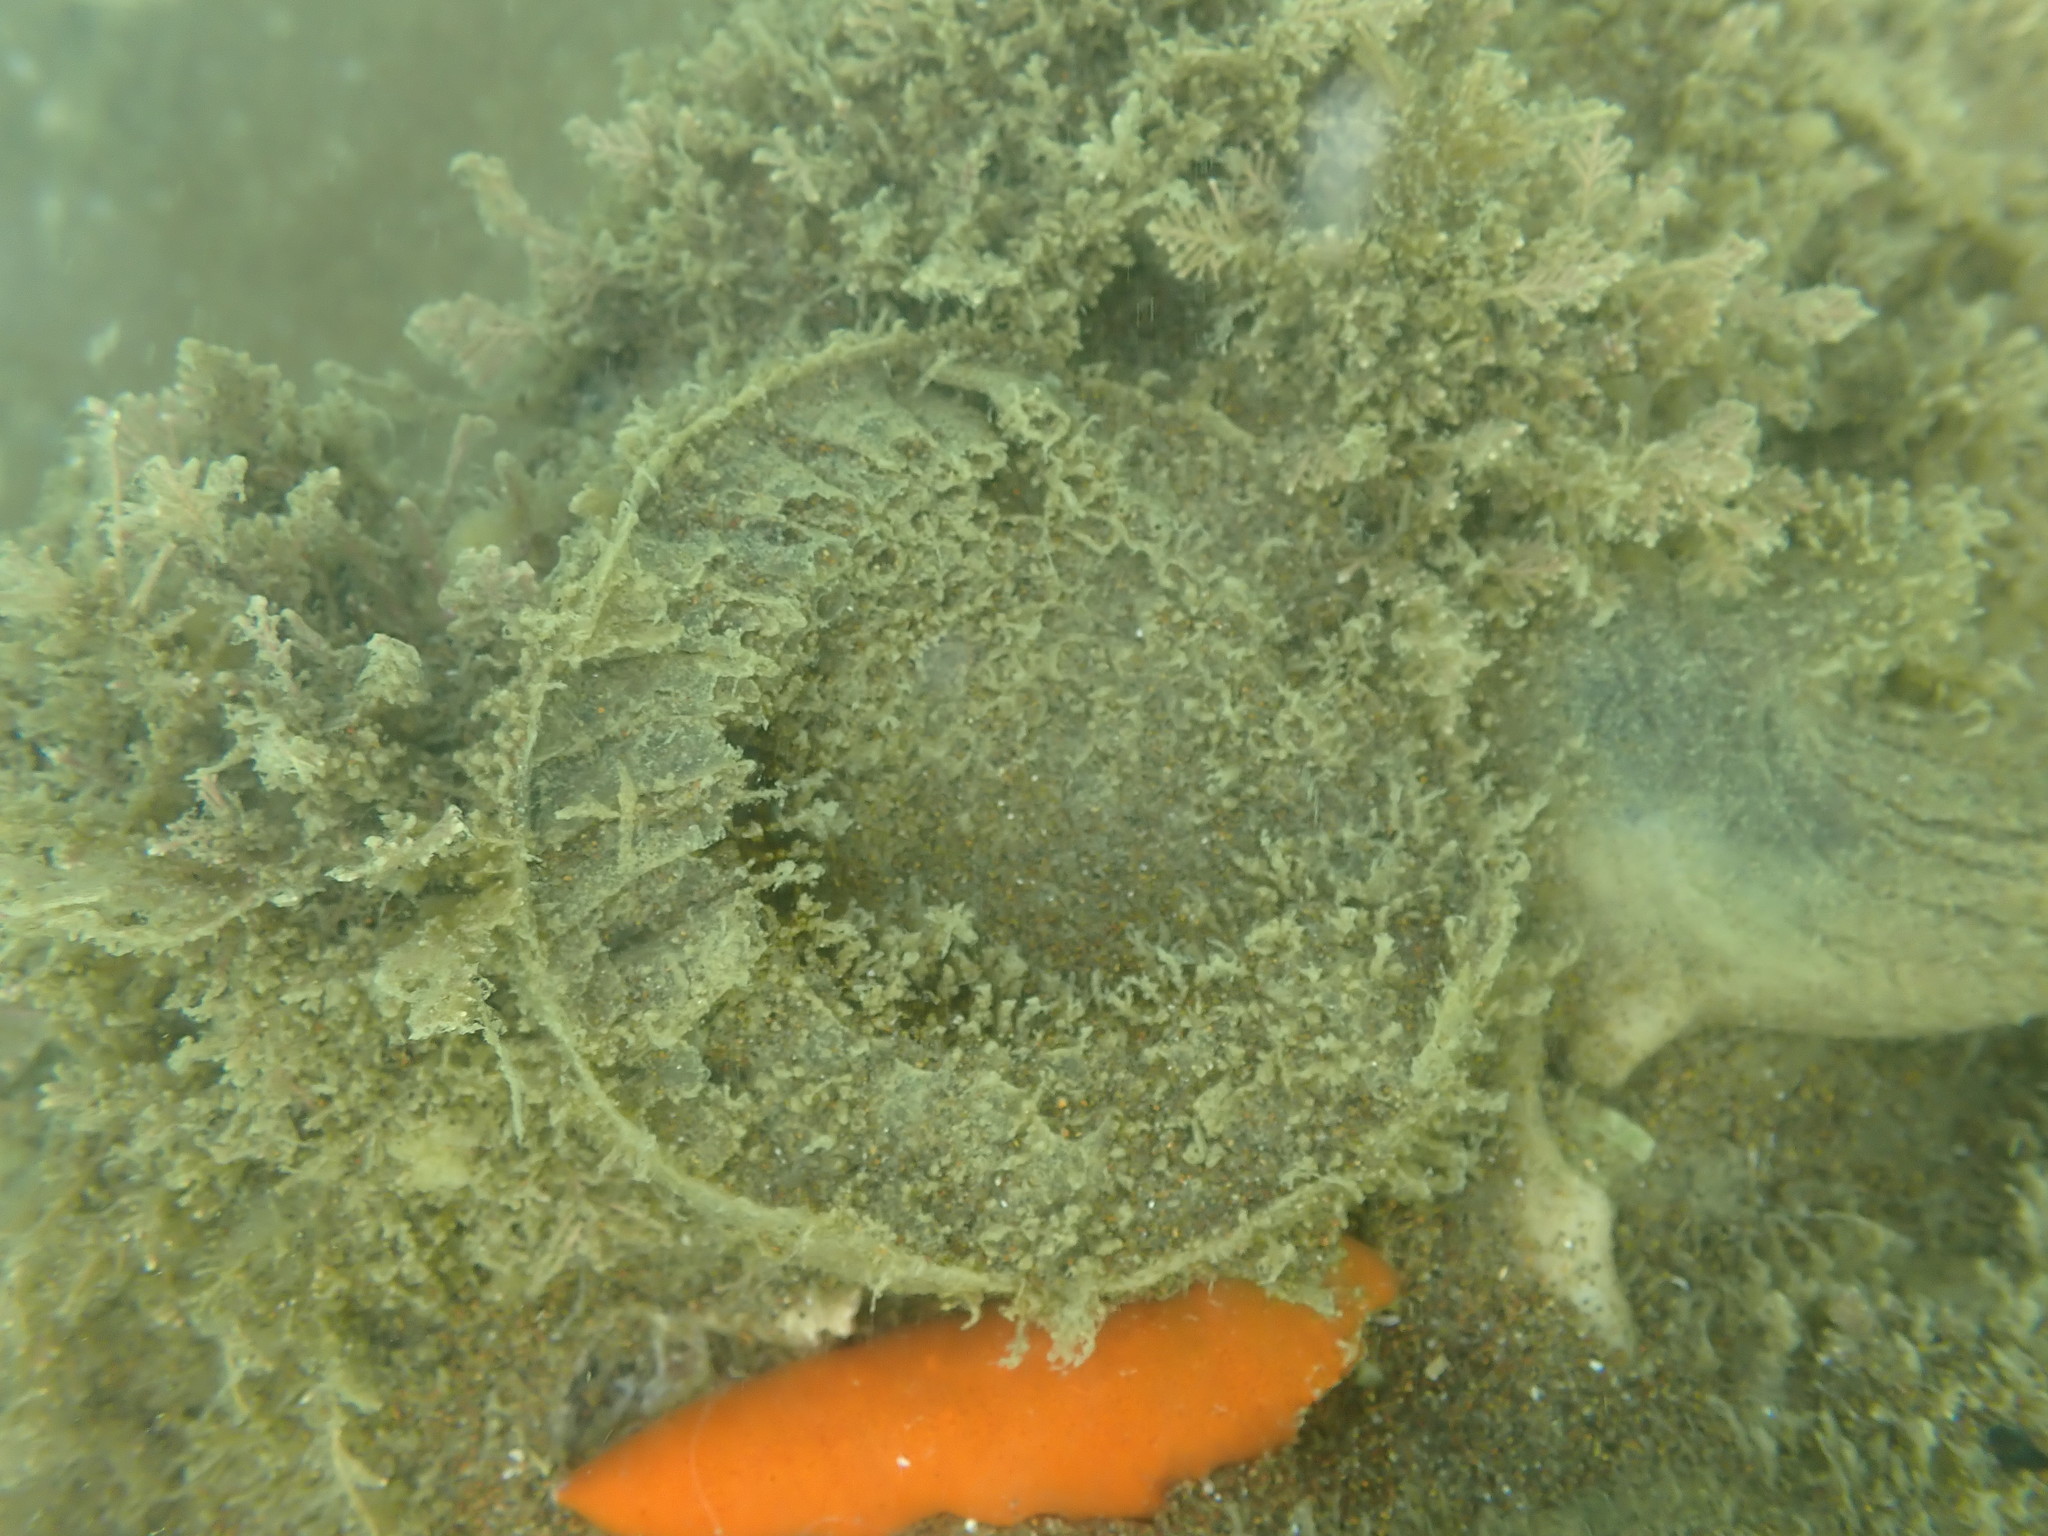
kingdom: Animalia
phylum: Mollusca
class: Gastropoda
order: Littorinimorpha
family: Cymatiidae
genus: Cabestana
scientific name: Cabestana spengleri
